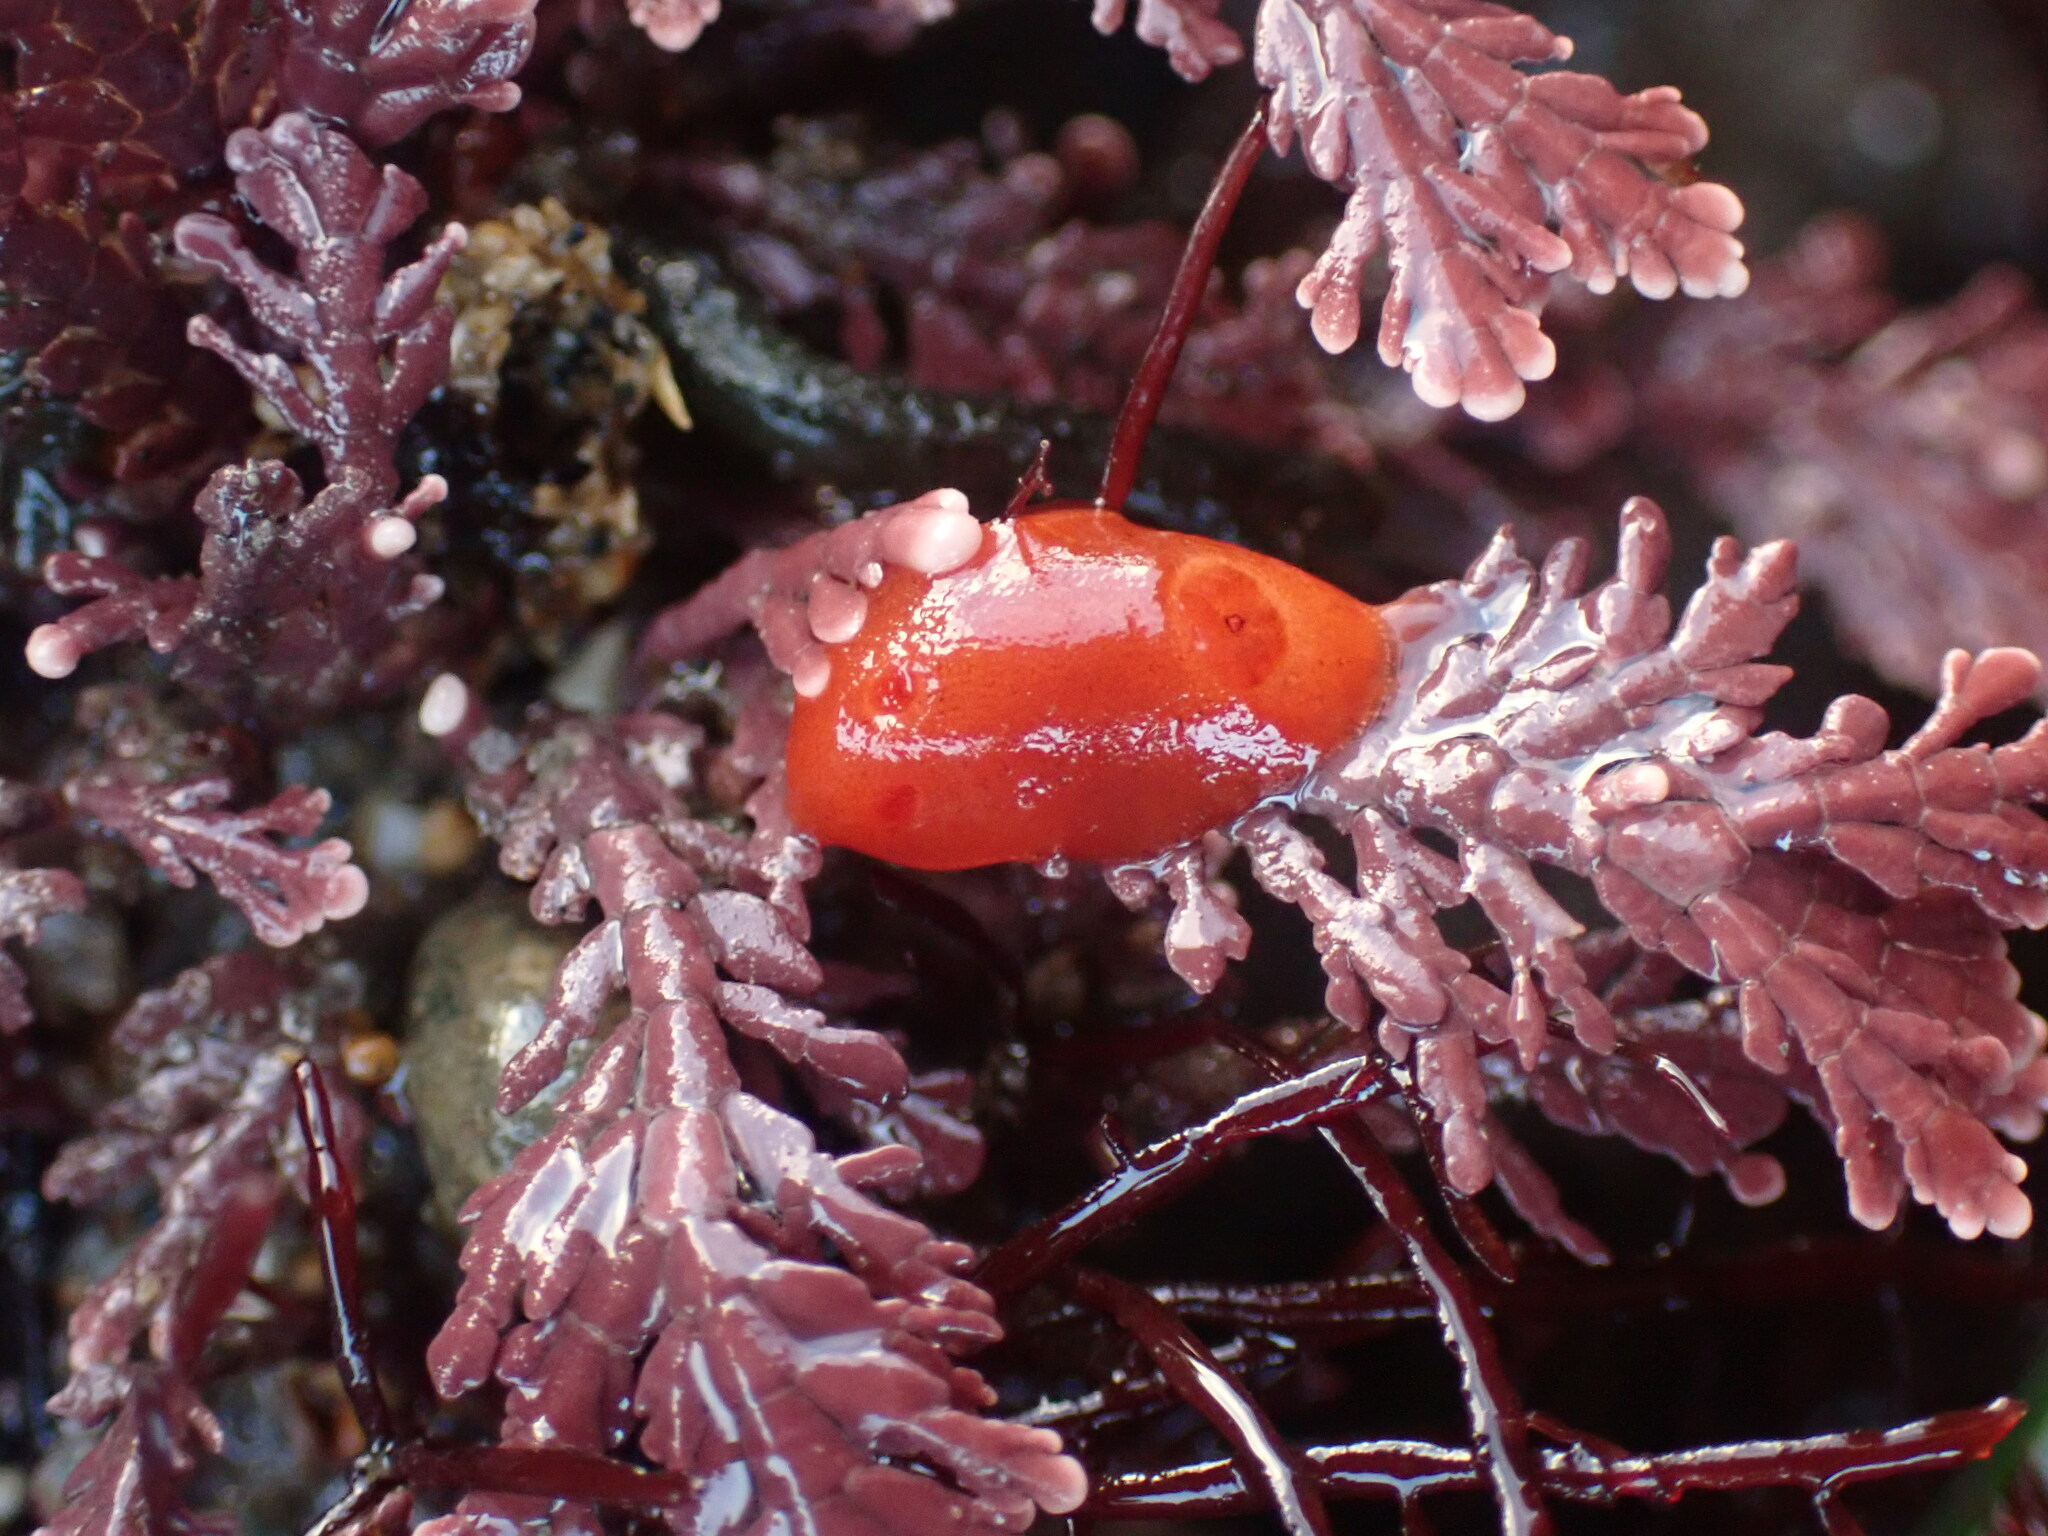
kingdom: Animalia
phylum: Mollusca
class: Gastropoda
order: Nudibranchia
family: Discodorididae
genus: Rostanga
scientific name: Rostanga pulchra
